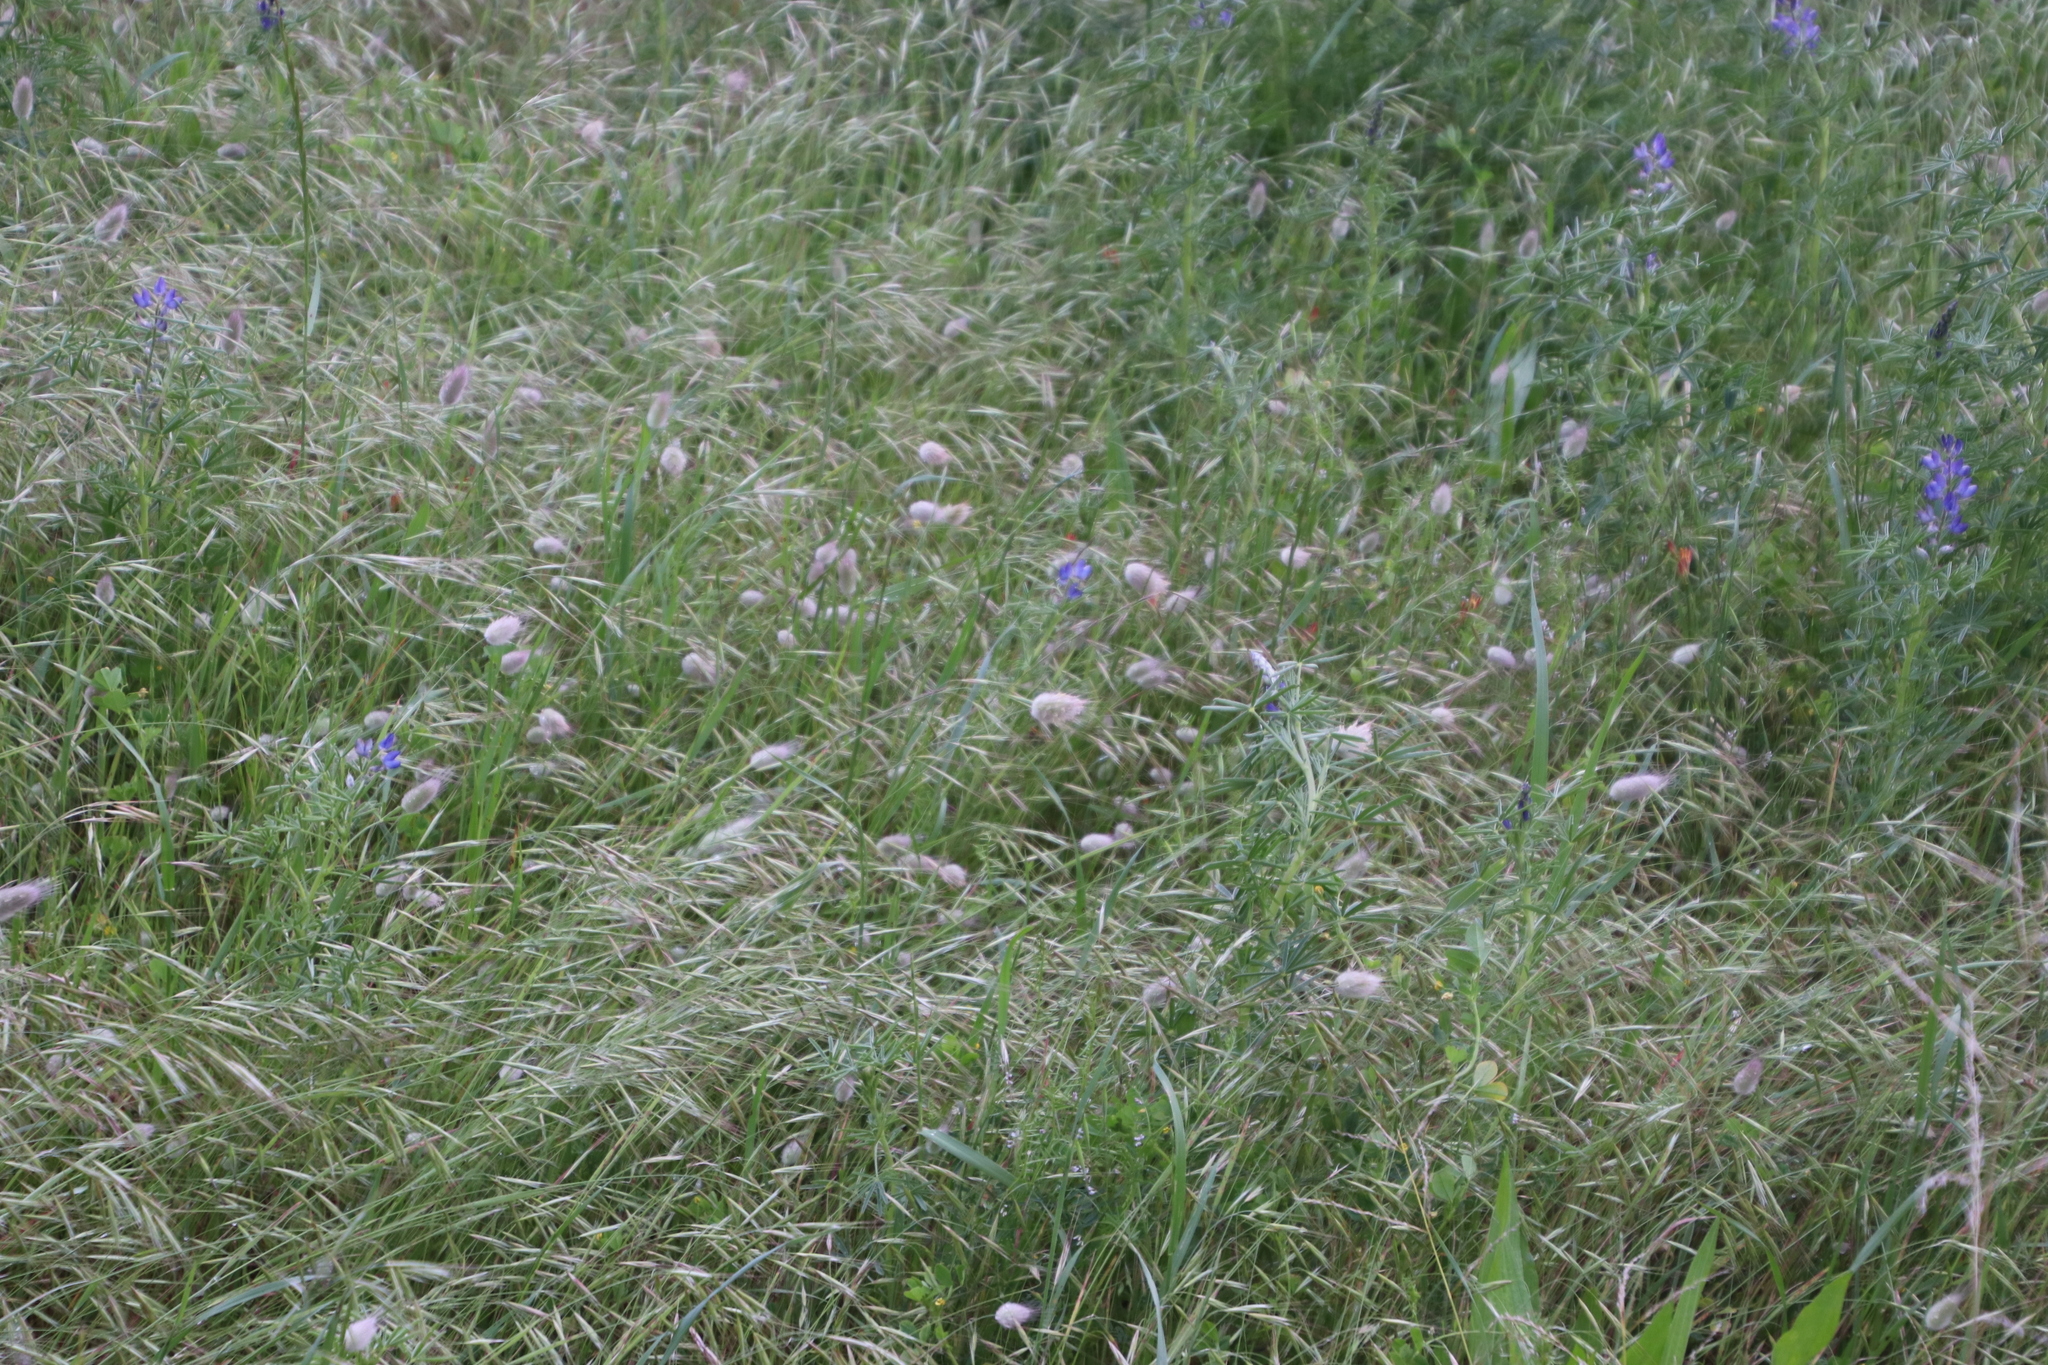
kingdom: Plantae
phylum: Tracheophyta
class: Liliopsida
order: Poales
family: Poaceae
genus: Lagurus
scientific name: Lagurus ovatus
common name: Hare's-tail
